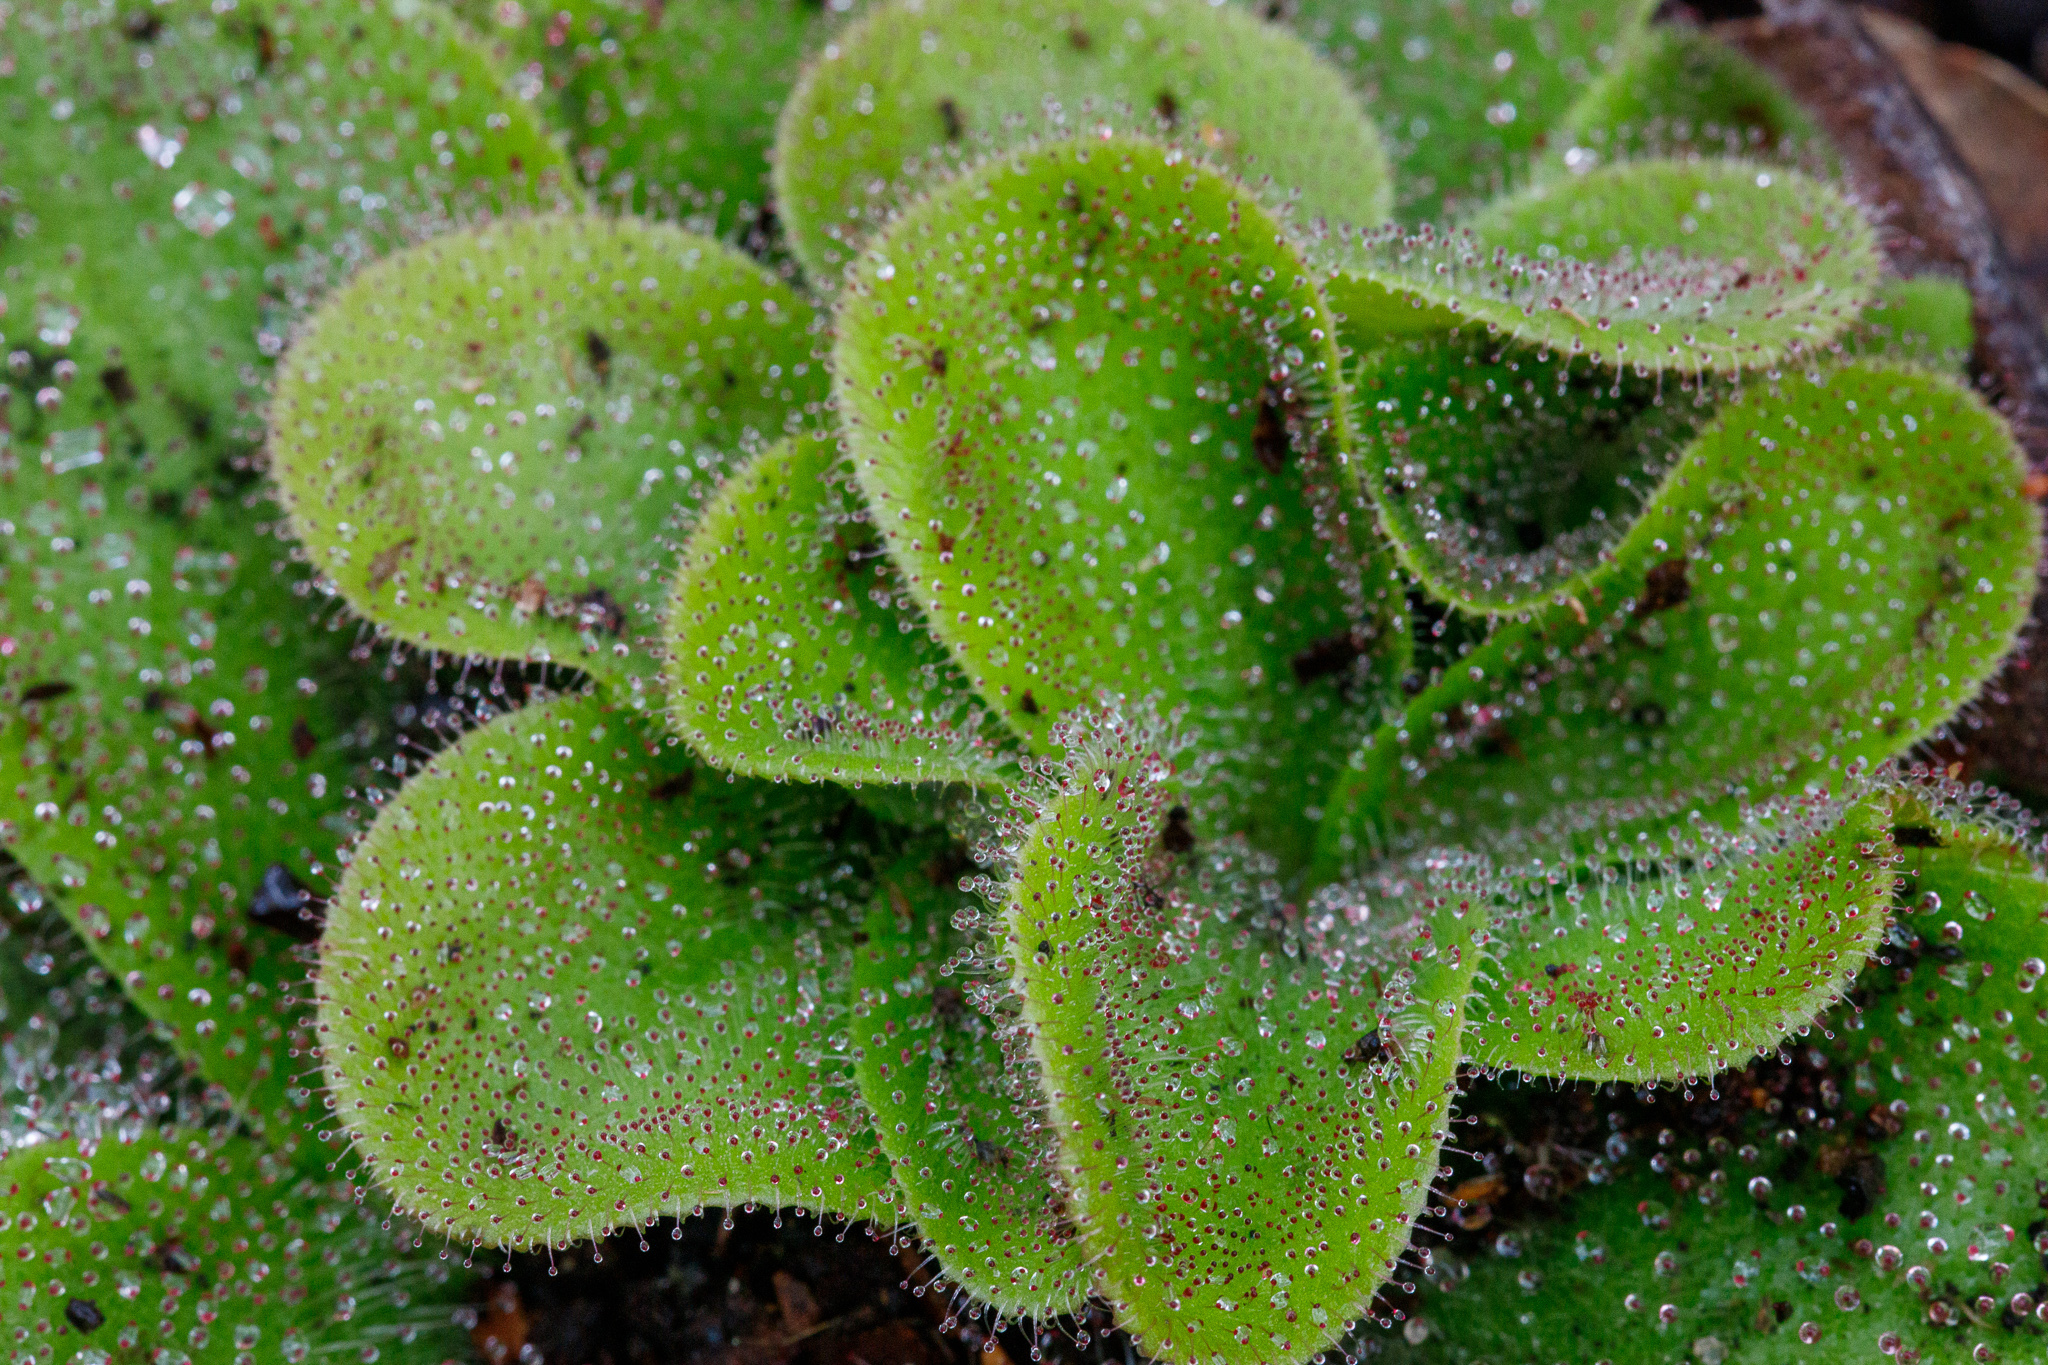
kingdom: Plantae
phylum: Tracheophyta
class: Magnoliopsida
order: Caryophyllales
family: Droseraceae
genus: Drosera
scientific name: Drosera erythrorhiza
